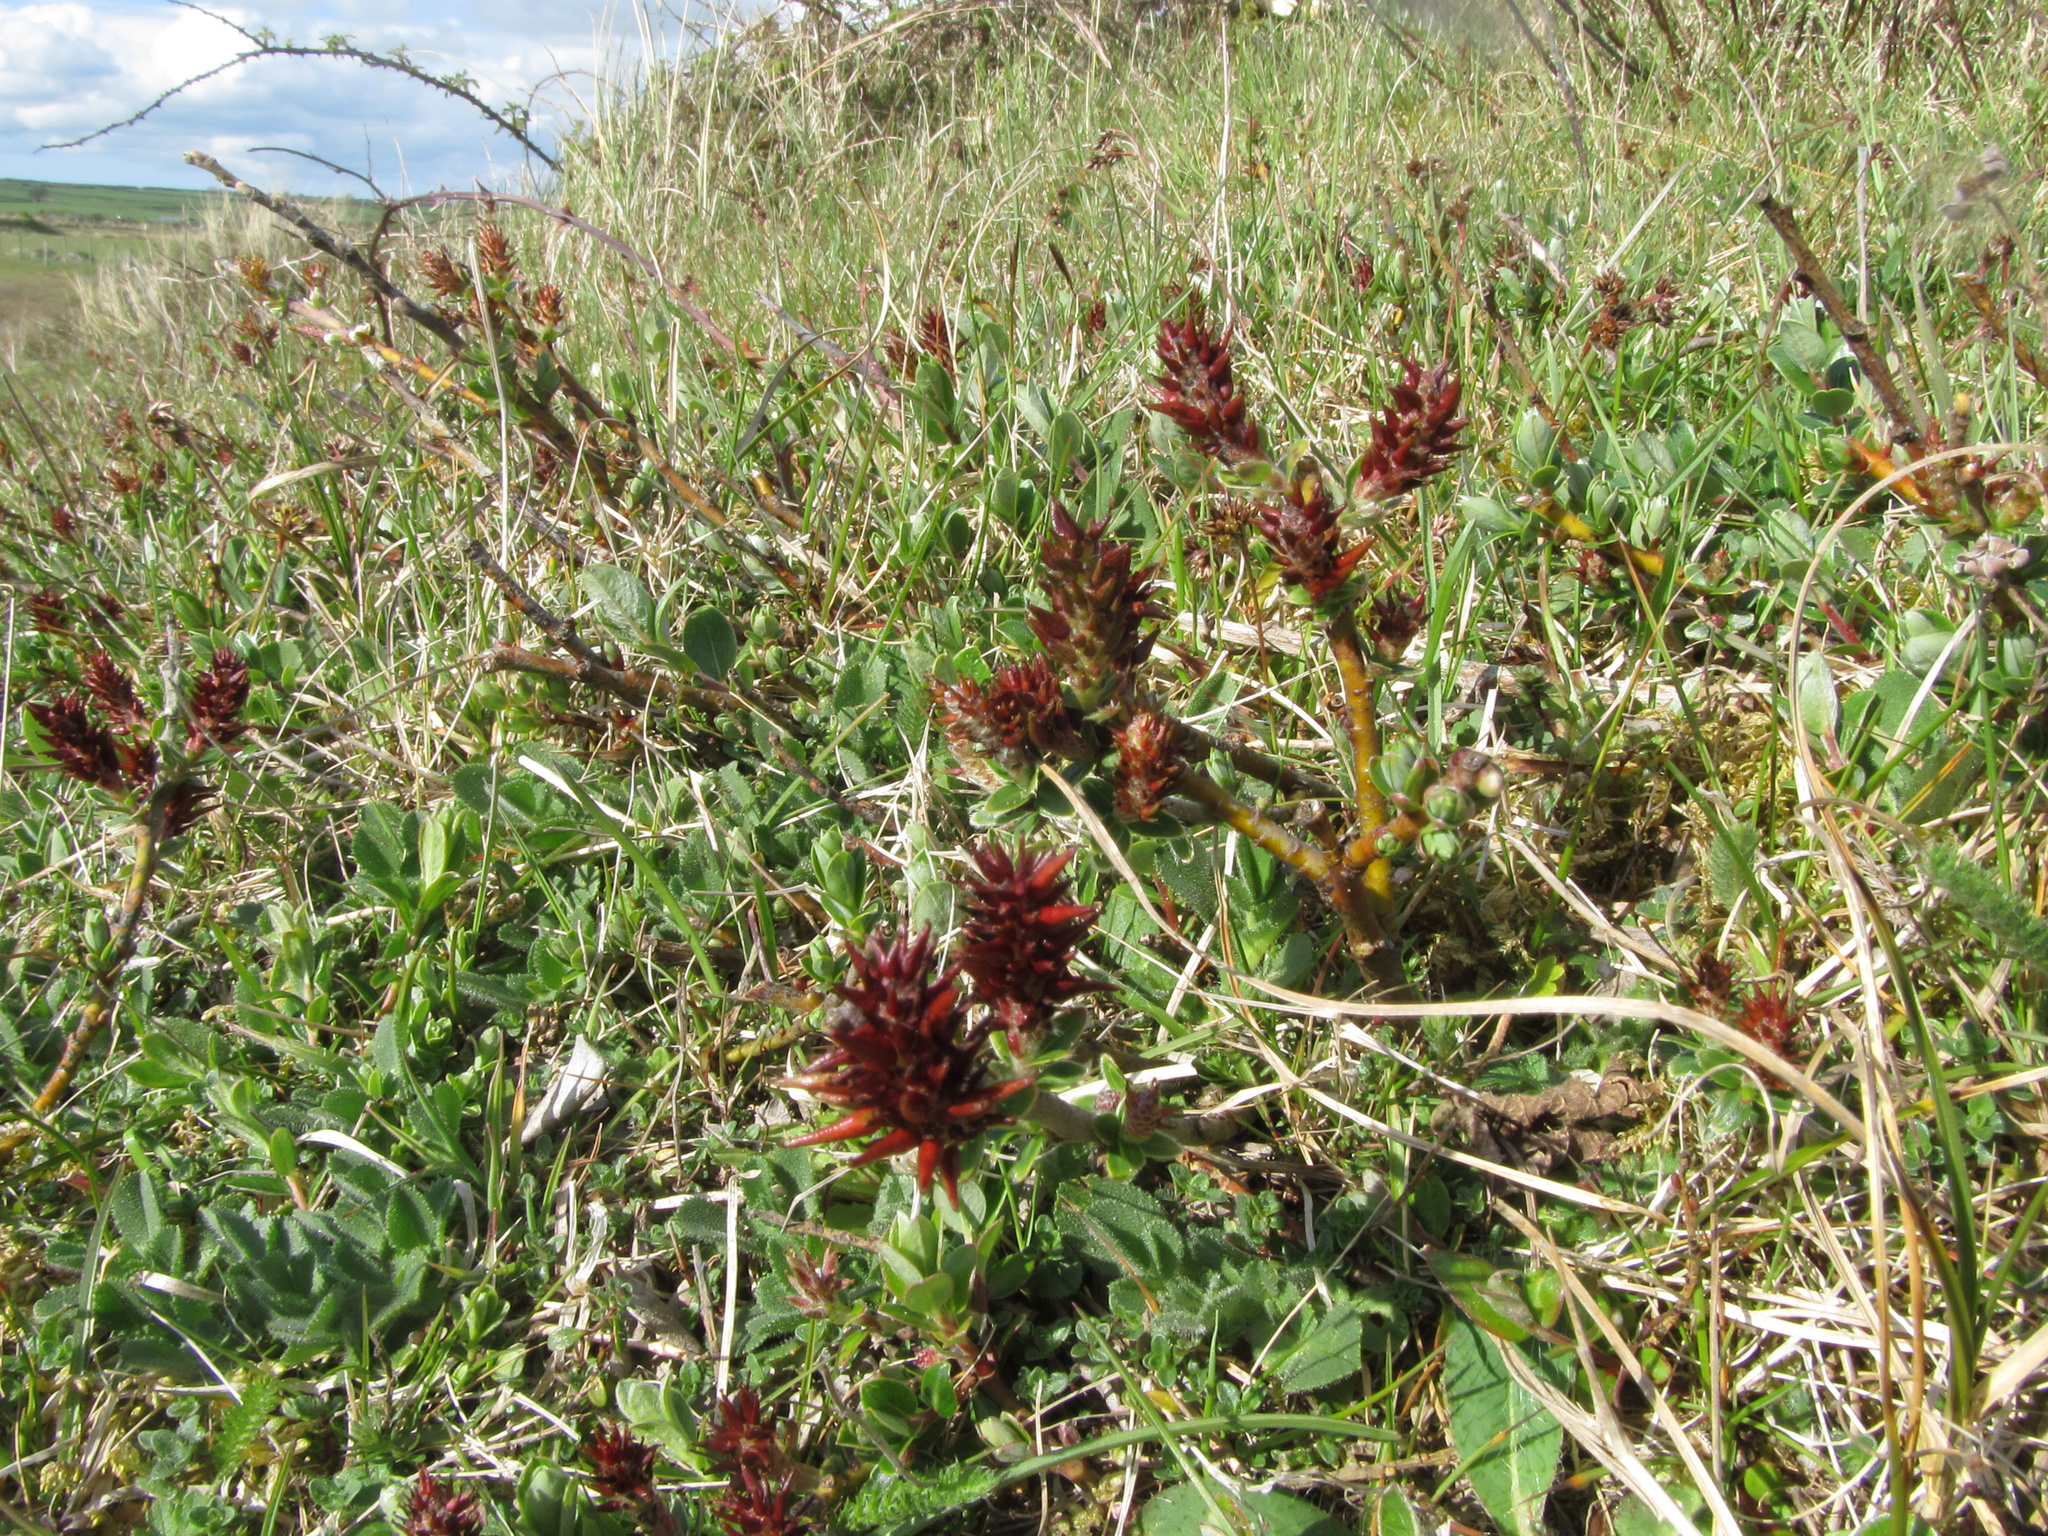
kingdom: Plantae
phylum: Tracheophyta
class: Magnoliopsida
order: Malpighiales
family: Salicaceae
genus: Salix
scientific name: Salix repens
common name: Creeping willow
